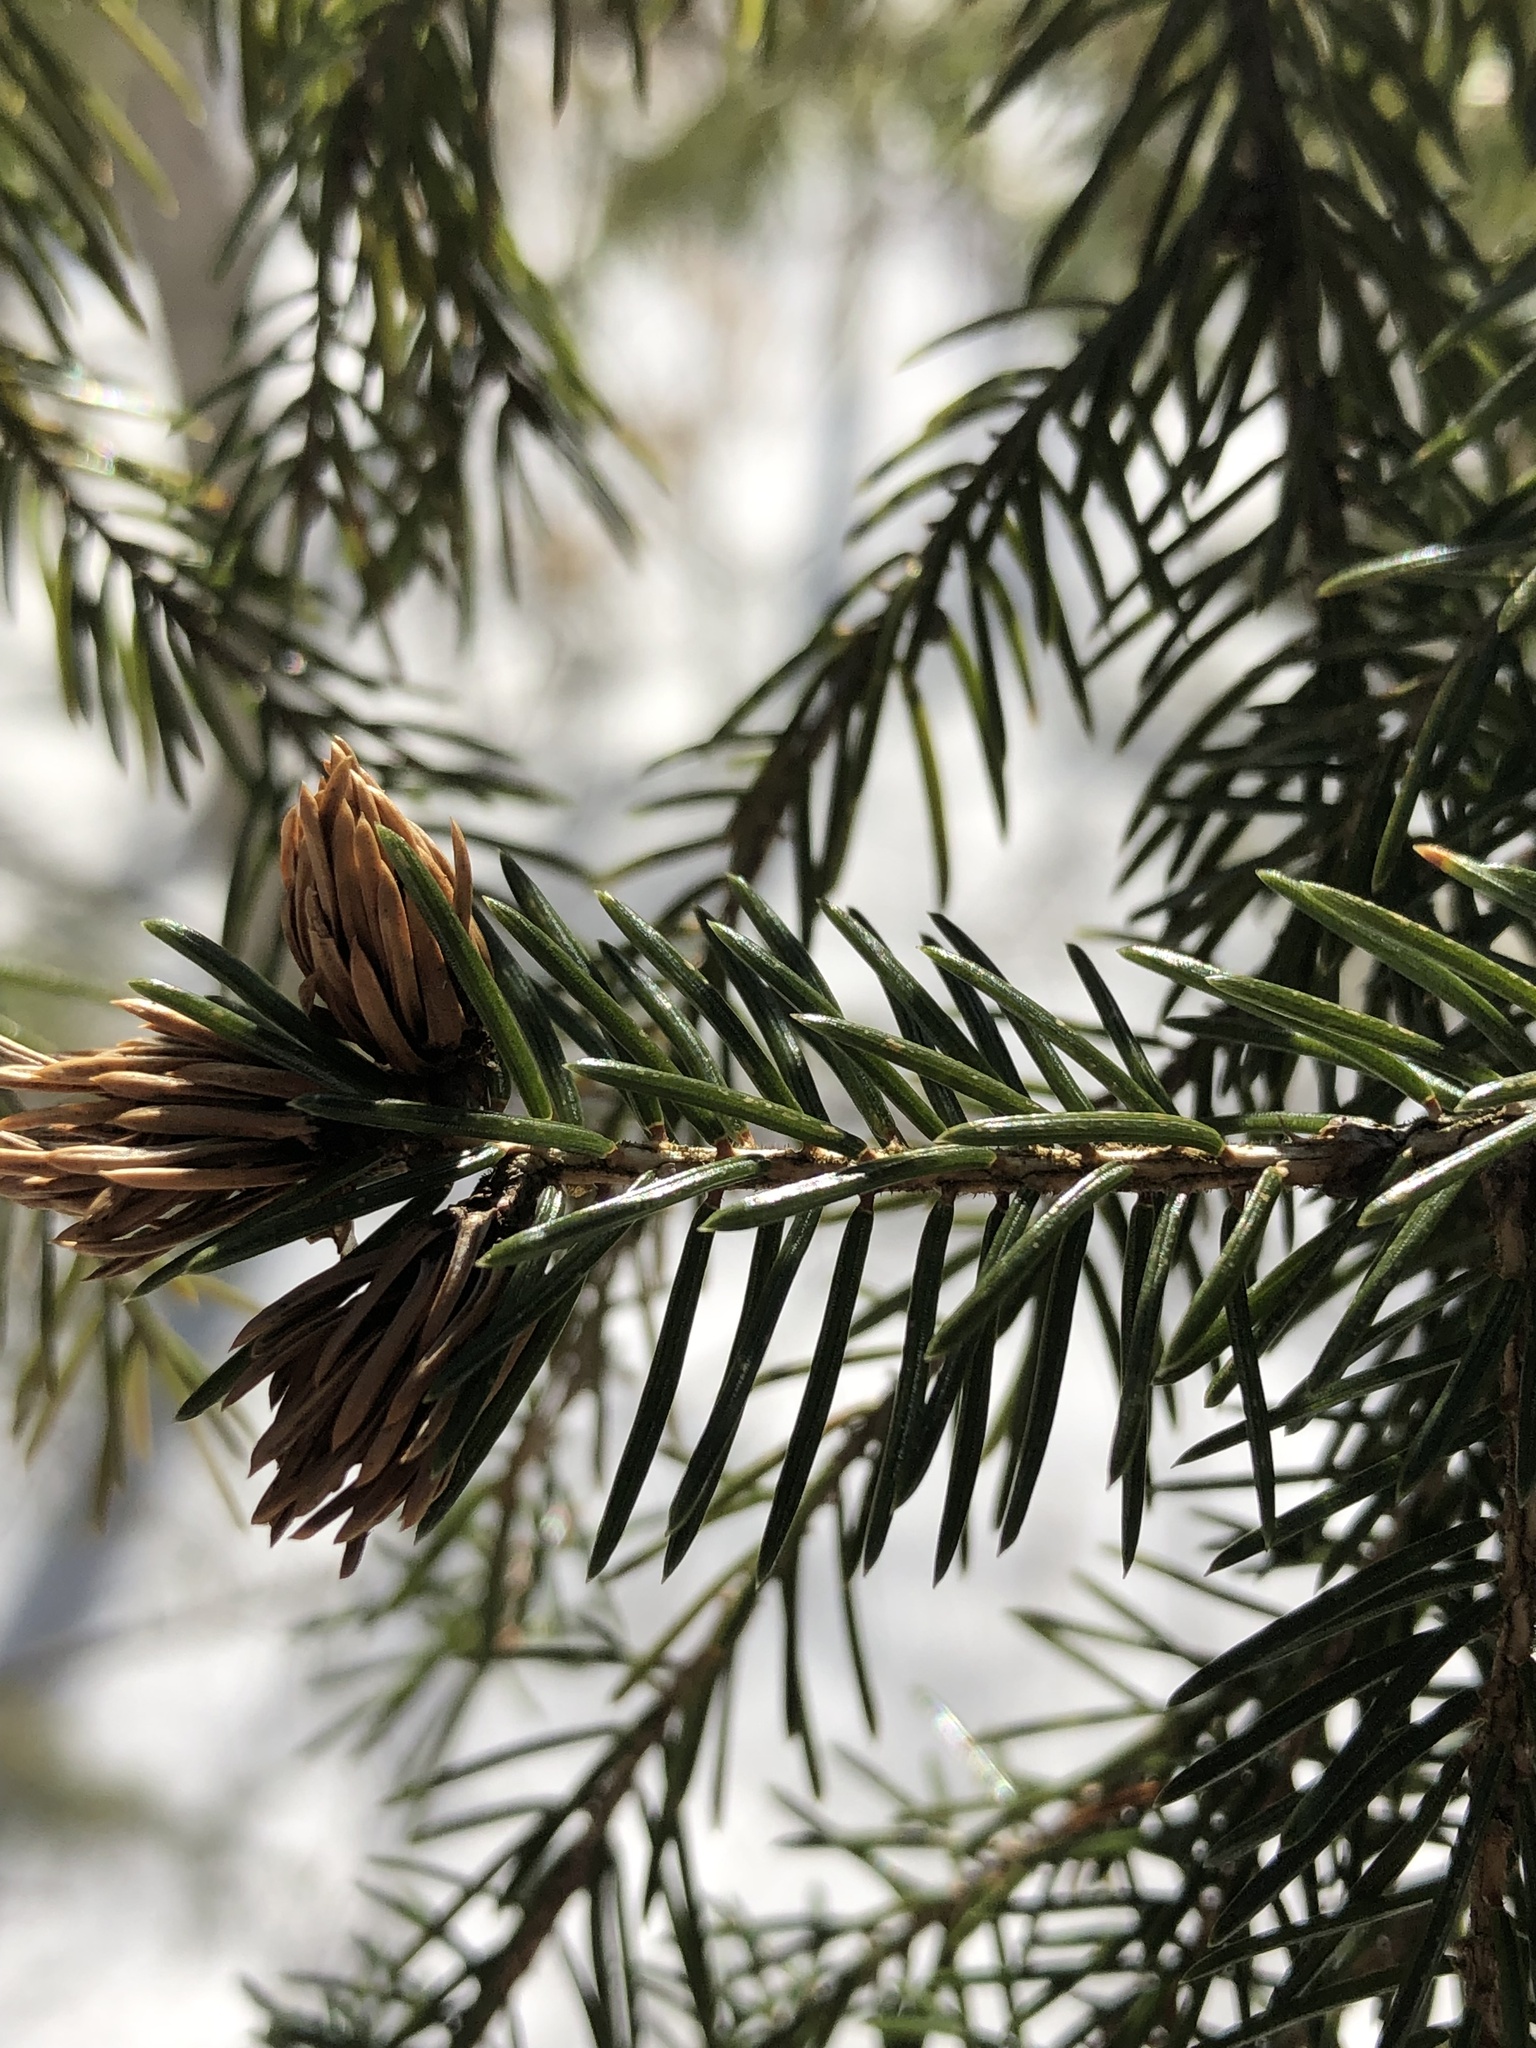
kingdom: Animalia
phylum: Arthropoda
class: Insecta
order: Hemiptera
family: Adelgidae
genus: Adelges
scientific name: Adelges abietis
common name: Eastern spruce gall adelgid
